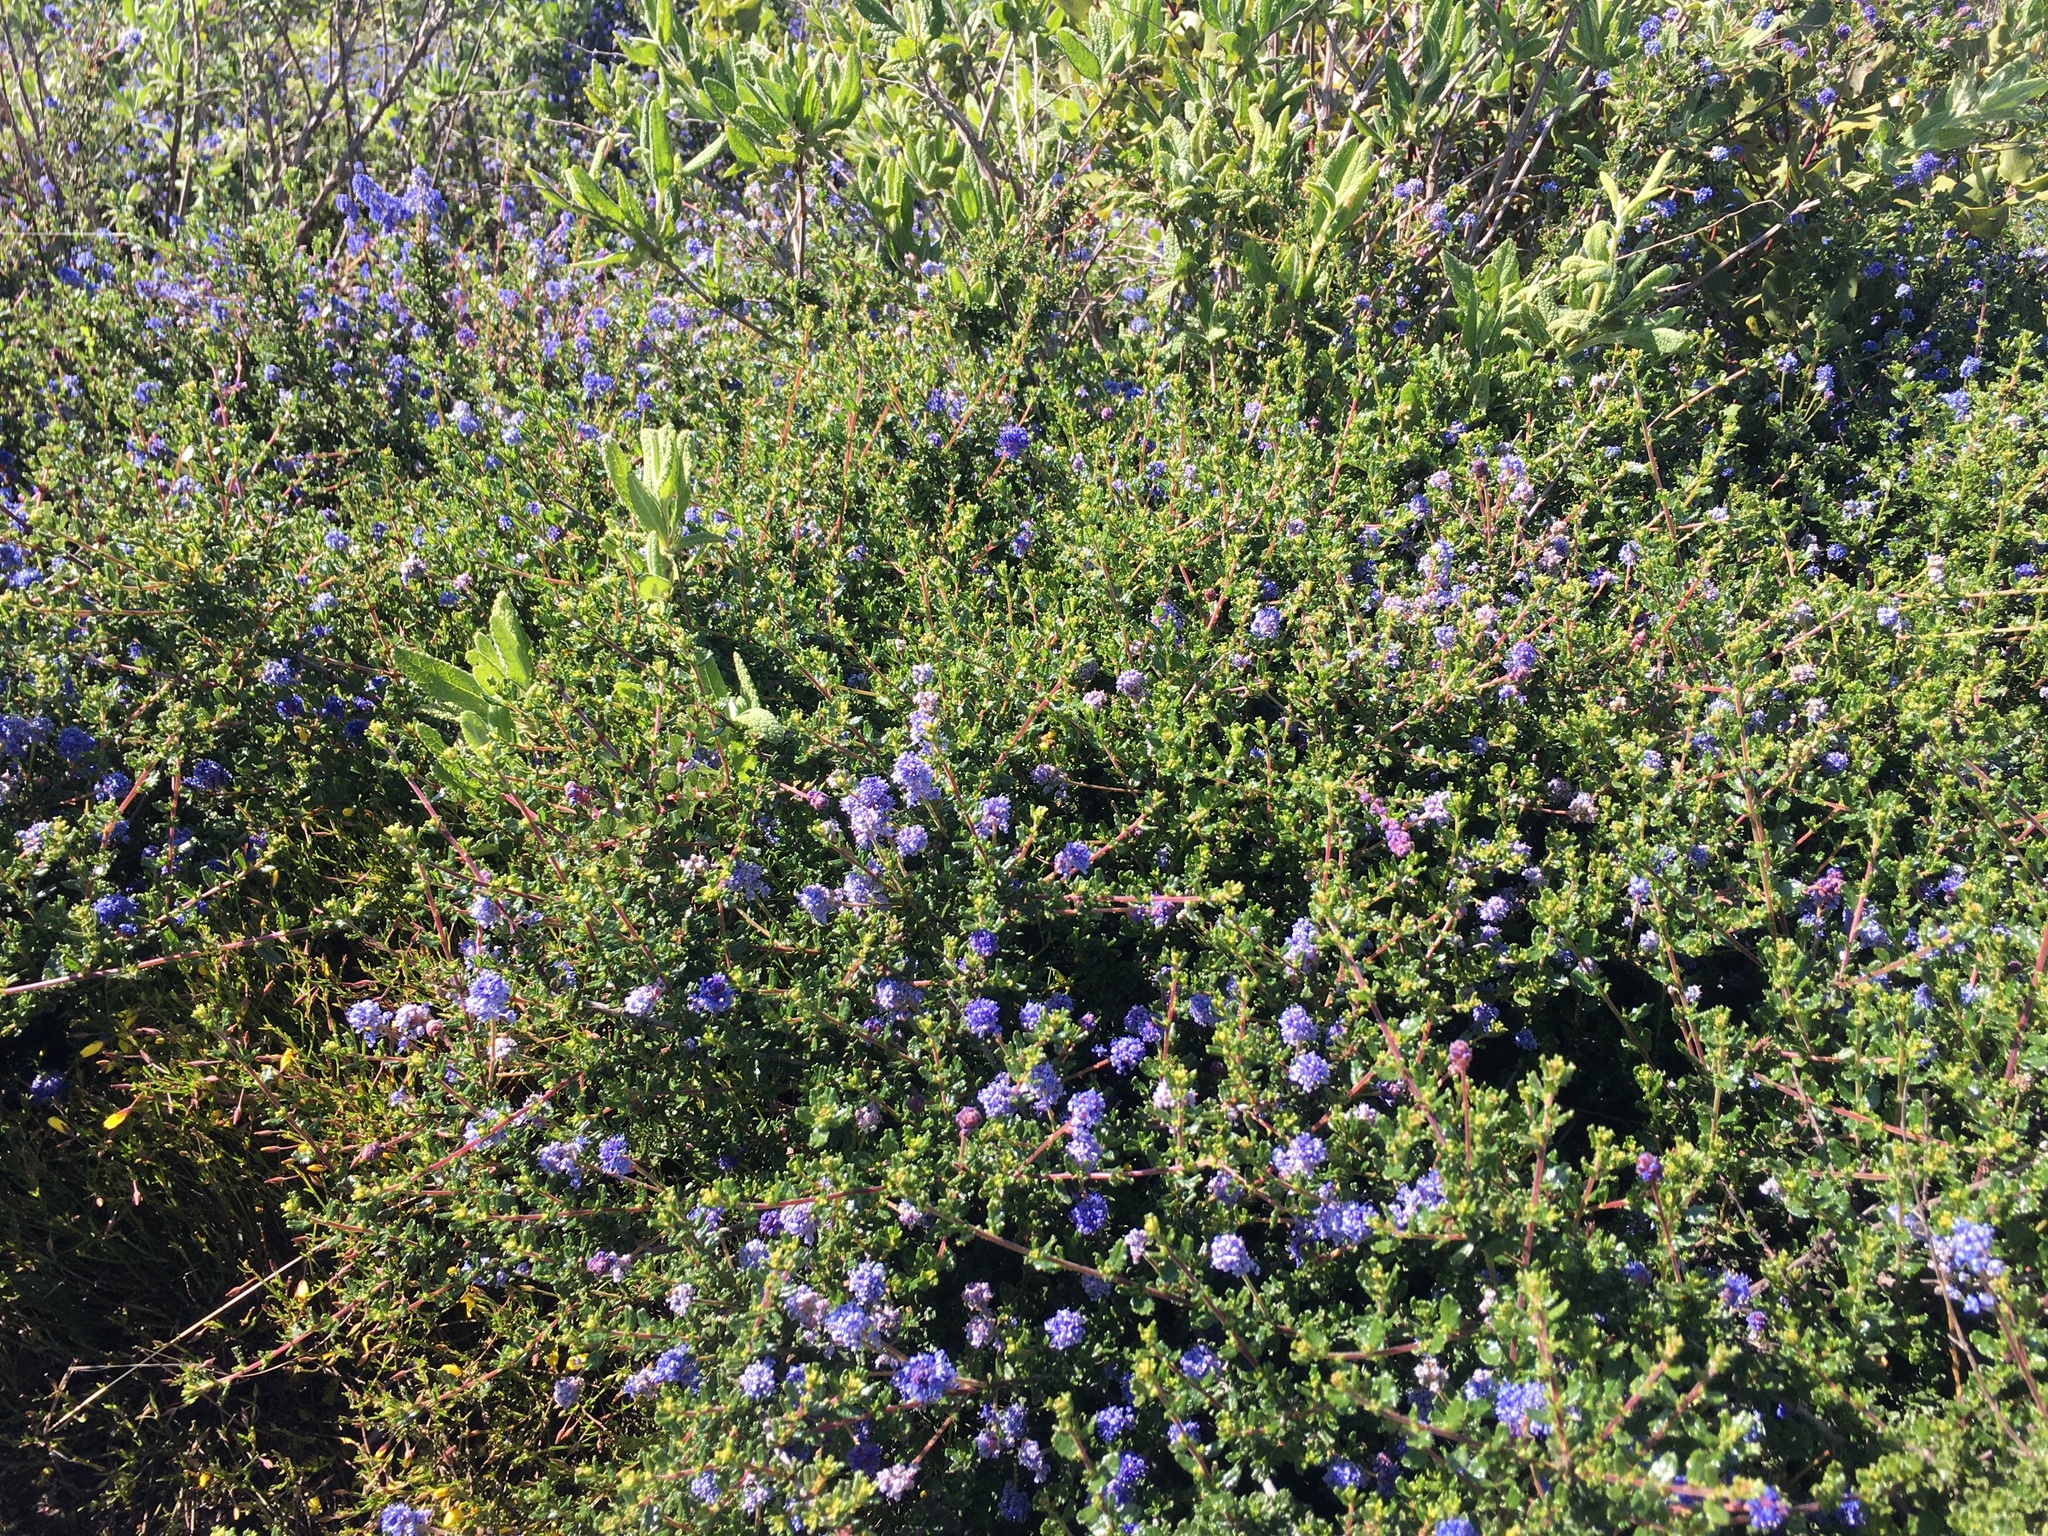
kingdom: Plantae
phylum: Tracheophyta
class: Magnoliopsida
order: Rosales
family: Rhamnaceae
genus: Ceanothus
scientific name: Ceanothus dentatus
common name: Crop-leaf ceanothus
